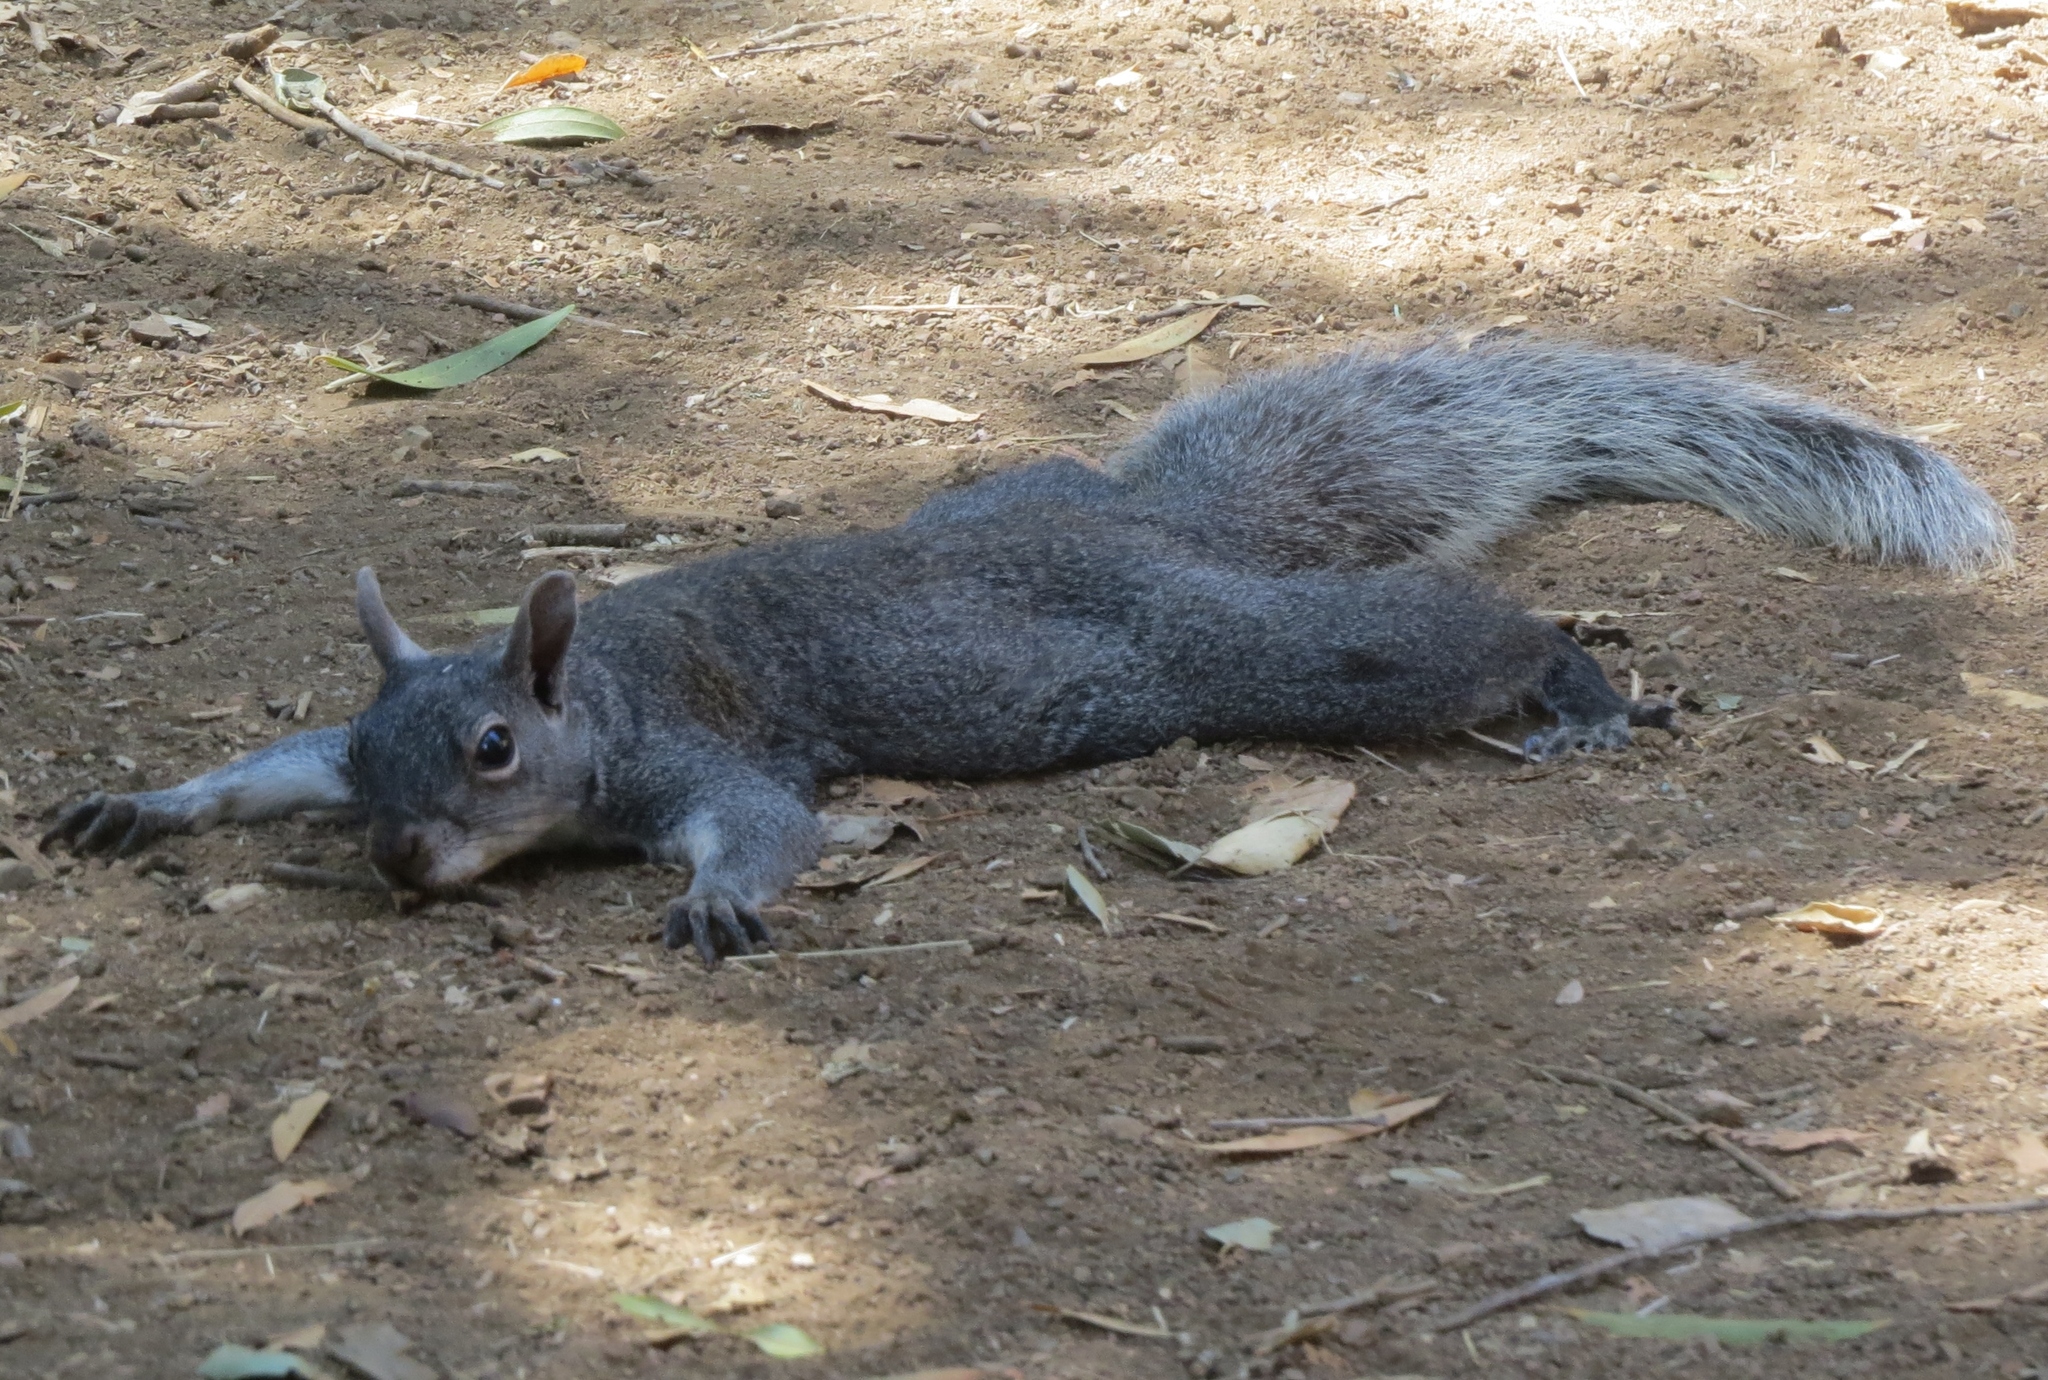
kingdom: Animalia
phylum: Chordata
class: Mammalia
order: Rodentia
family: Sciuridae
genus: Sciurus
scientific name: Sciurus griseus
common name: Western gray squirrel
